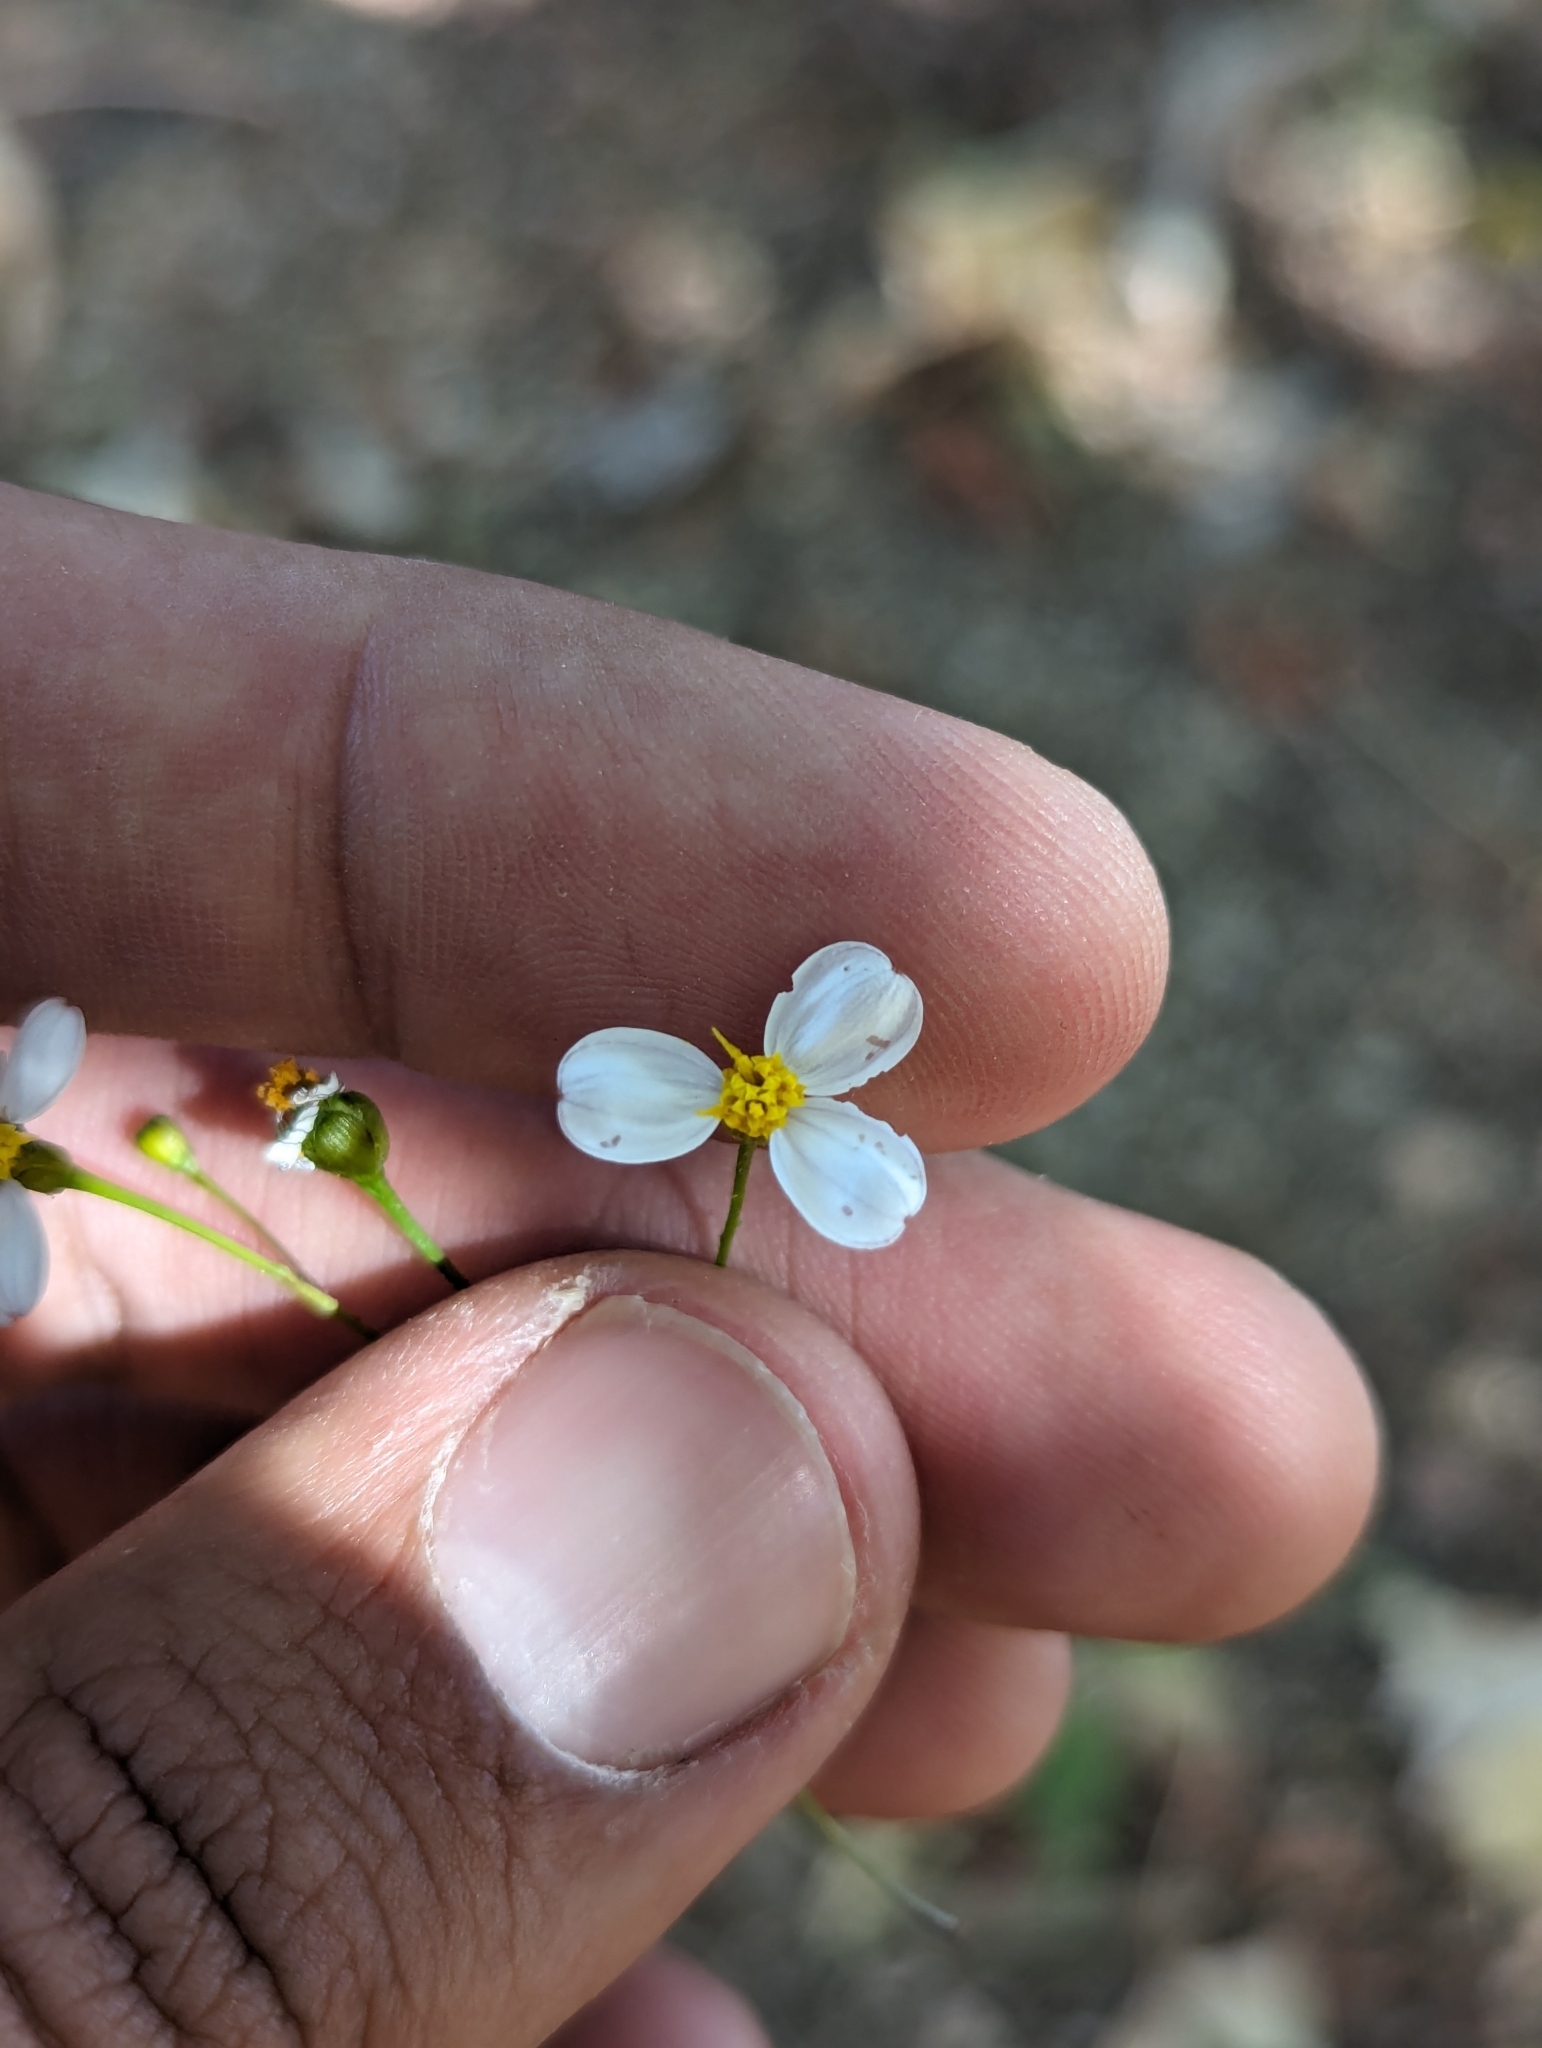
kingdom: Plantae
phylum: Tracheophyta
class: Magnoliopsida
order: Asterales
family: Asteraceae
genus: Coreocarpus
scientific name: Coreocarpus parthenioides
